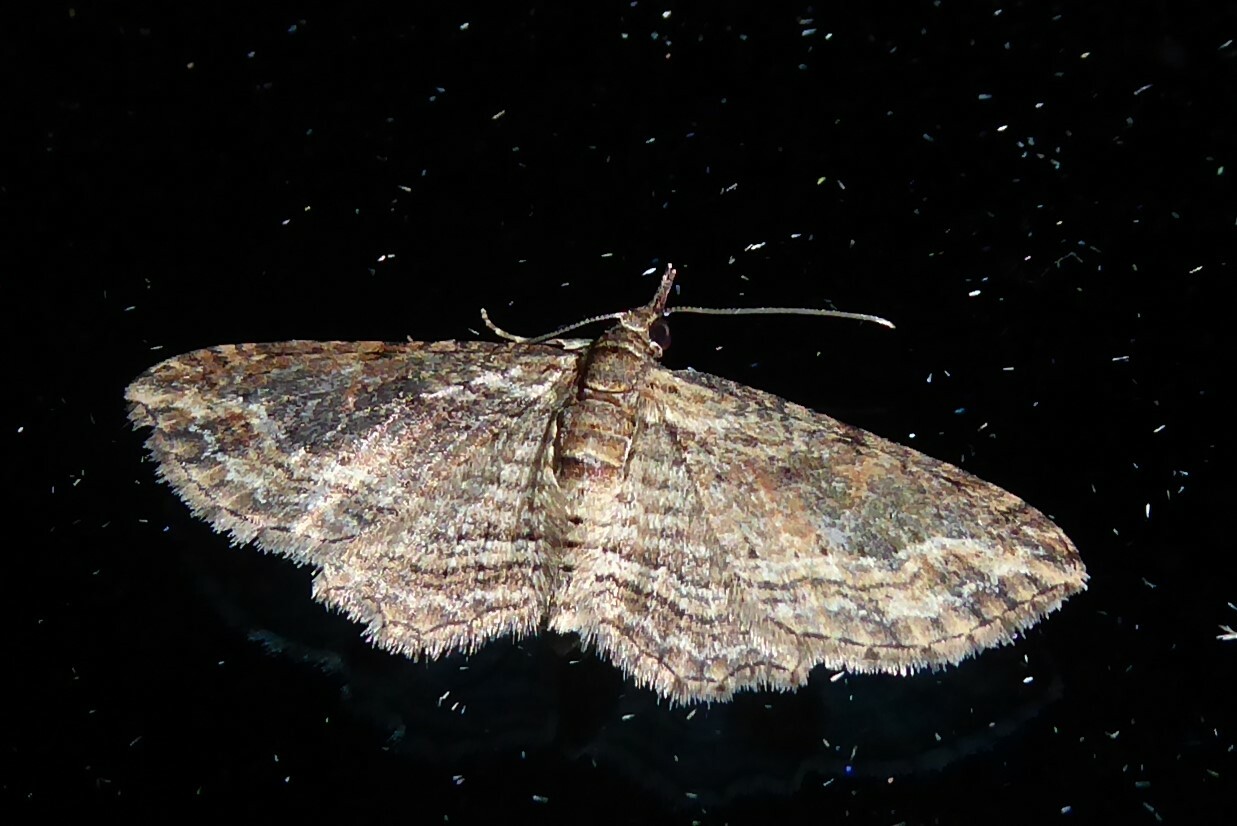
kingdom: Animalia
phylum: Arthropoda
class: Insecta
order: Lepidoptera
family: Geometridae
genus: Chloroclystis
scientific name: Chloroclystis filata
